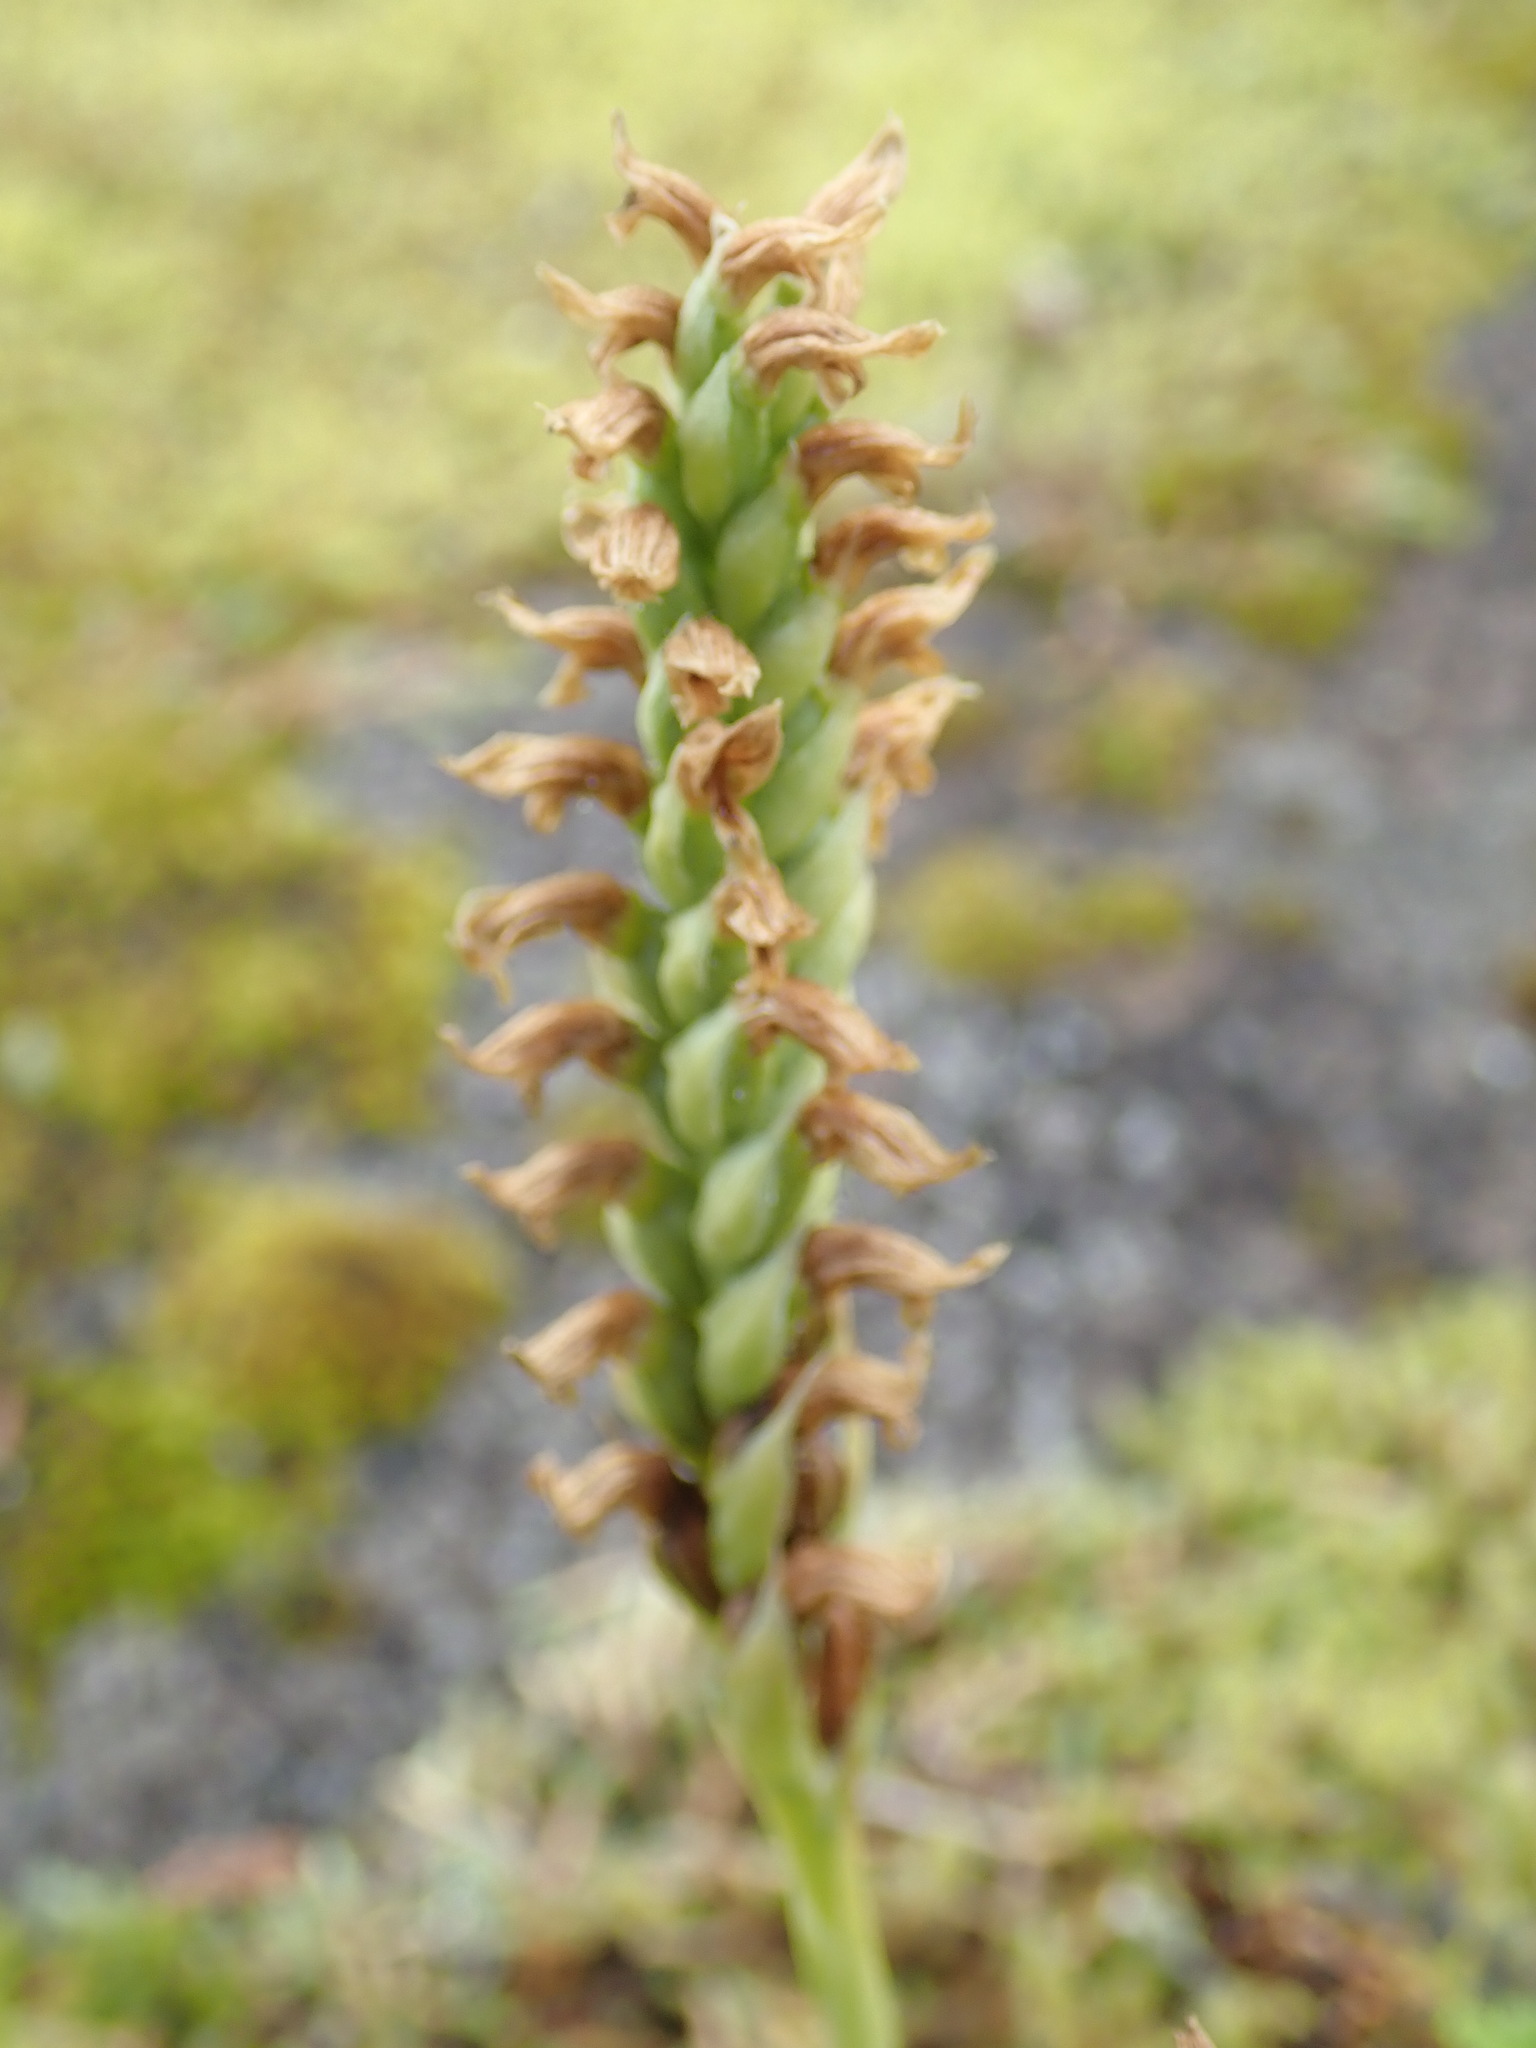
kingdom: Plantae
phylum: Tracheophyta
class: Liliopsida
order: Asparagales
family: Orchidaceae
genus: Spiranthes
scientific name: Spiranthes romanzoffiana
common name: Irish lady's-tresses
